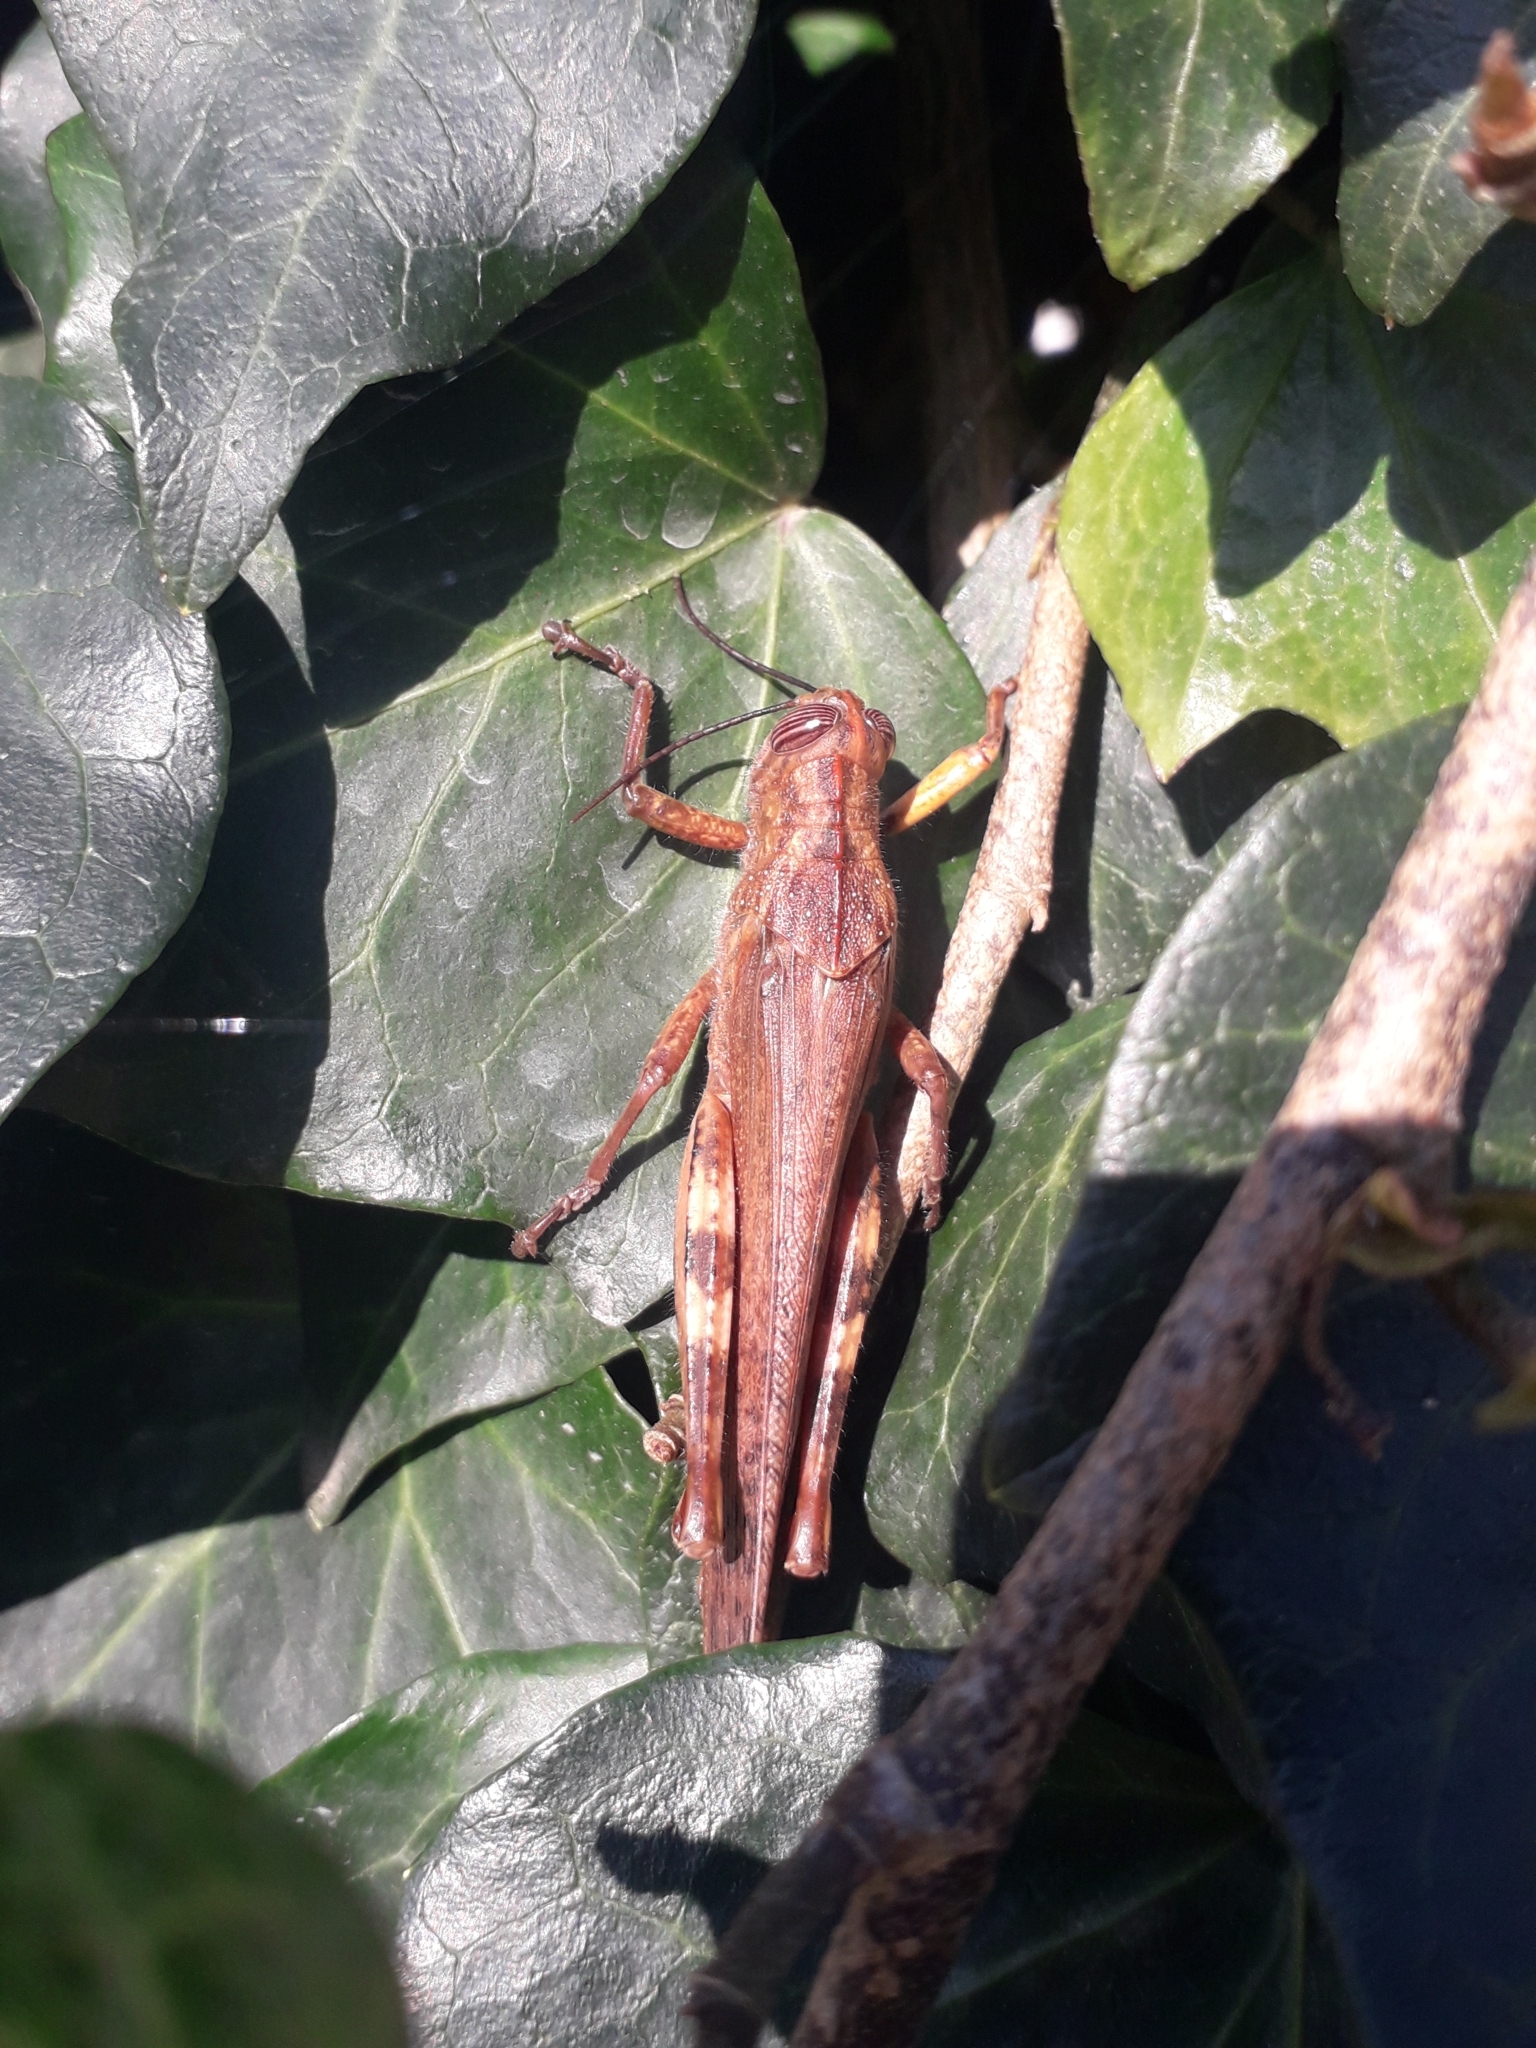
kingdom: Animalia
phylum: Arthropoda
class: Insecta
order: Orthoptera
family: Acrididae
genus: Anacridium
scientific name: Anacridium aegyptium
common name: Egyptian grasshopper
